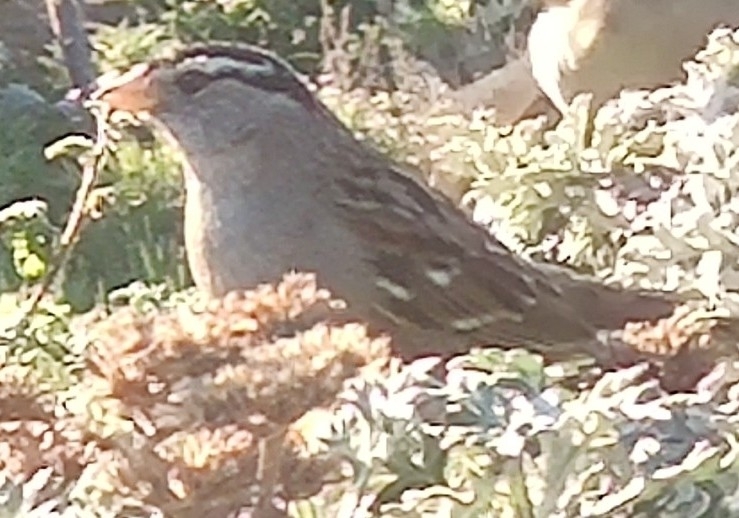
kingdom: Animalia
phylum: Chordata
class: Aves
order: Passeriformes
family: Passerellidae
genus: Zonotrichia
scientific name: Zonotrichia leucophrys
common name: White-crowned sparrow
